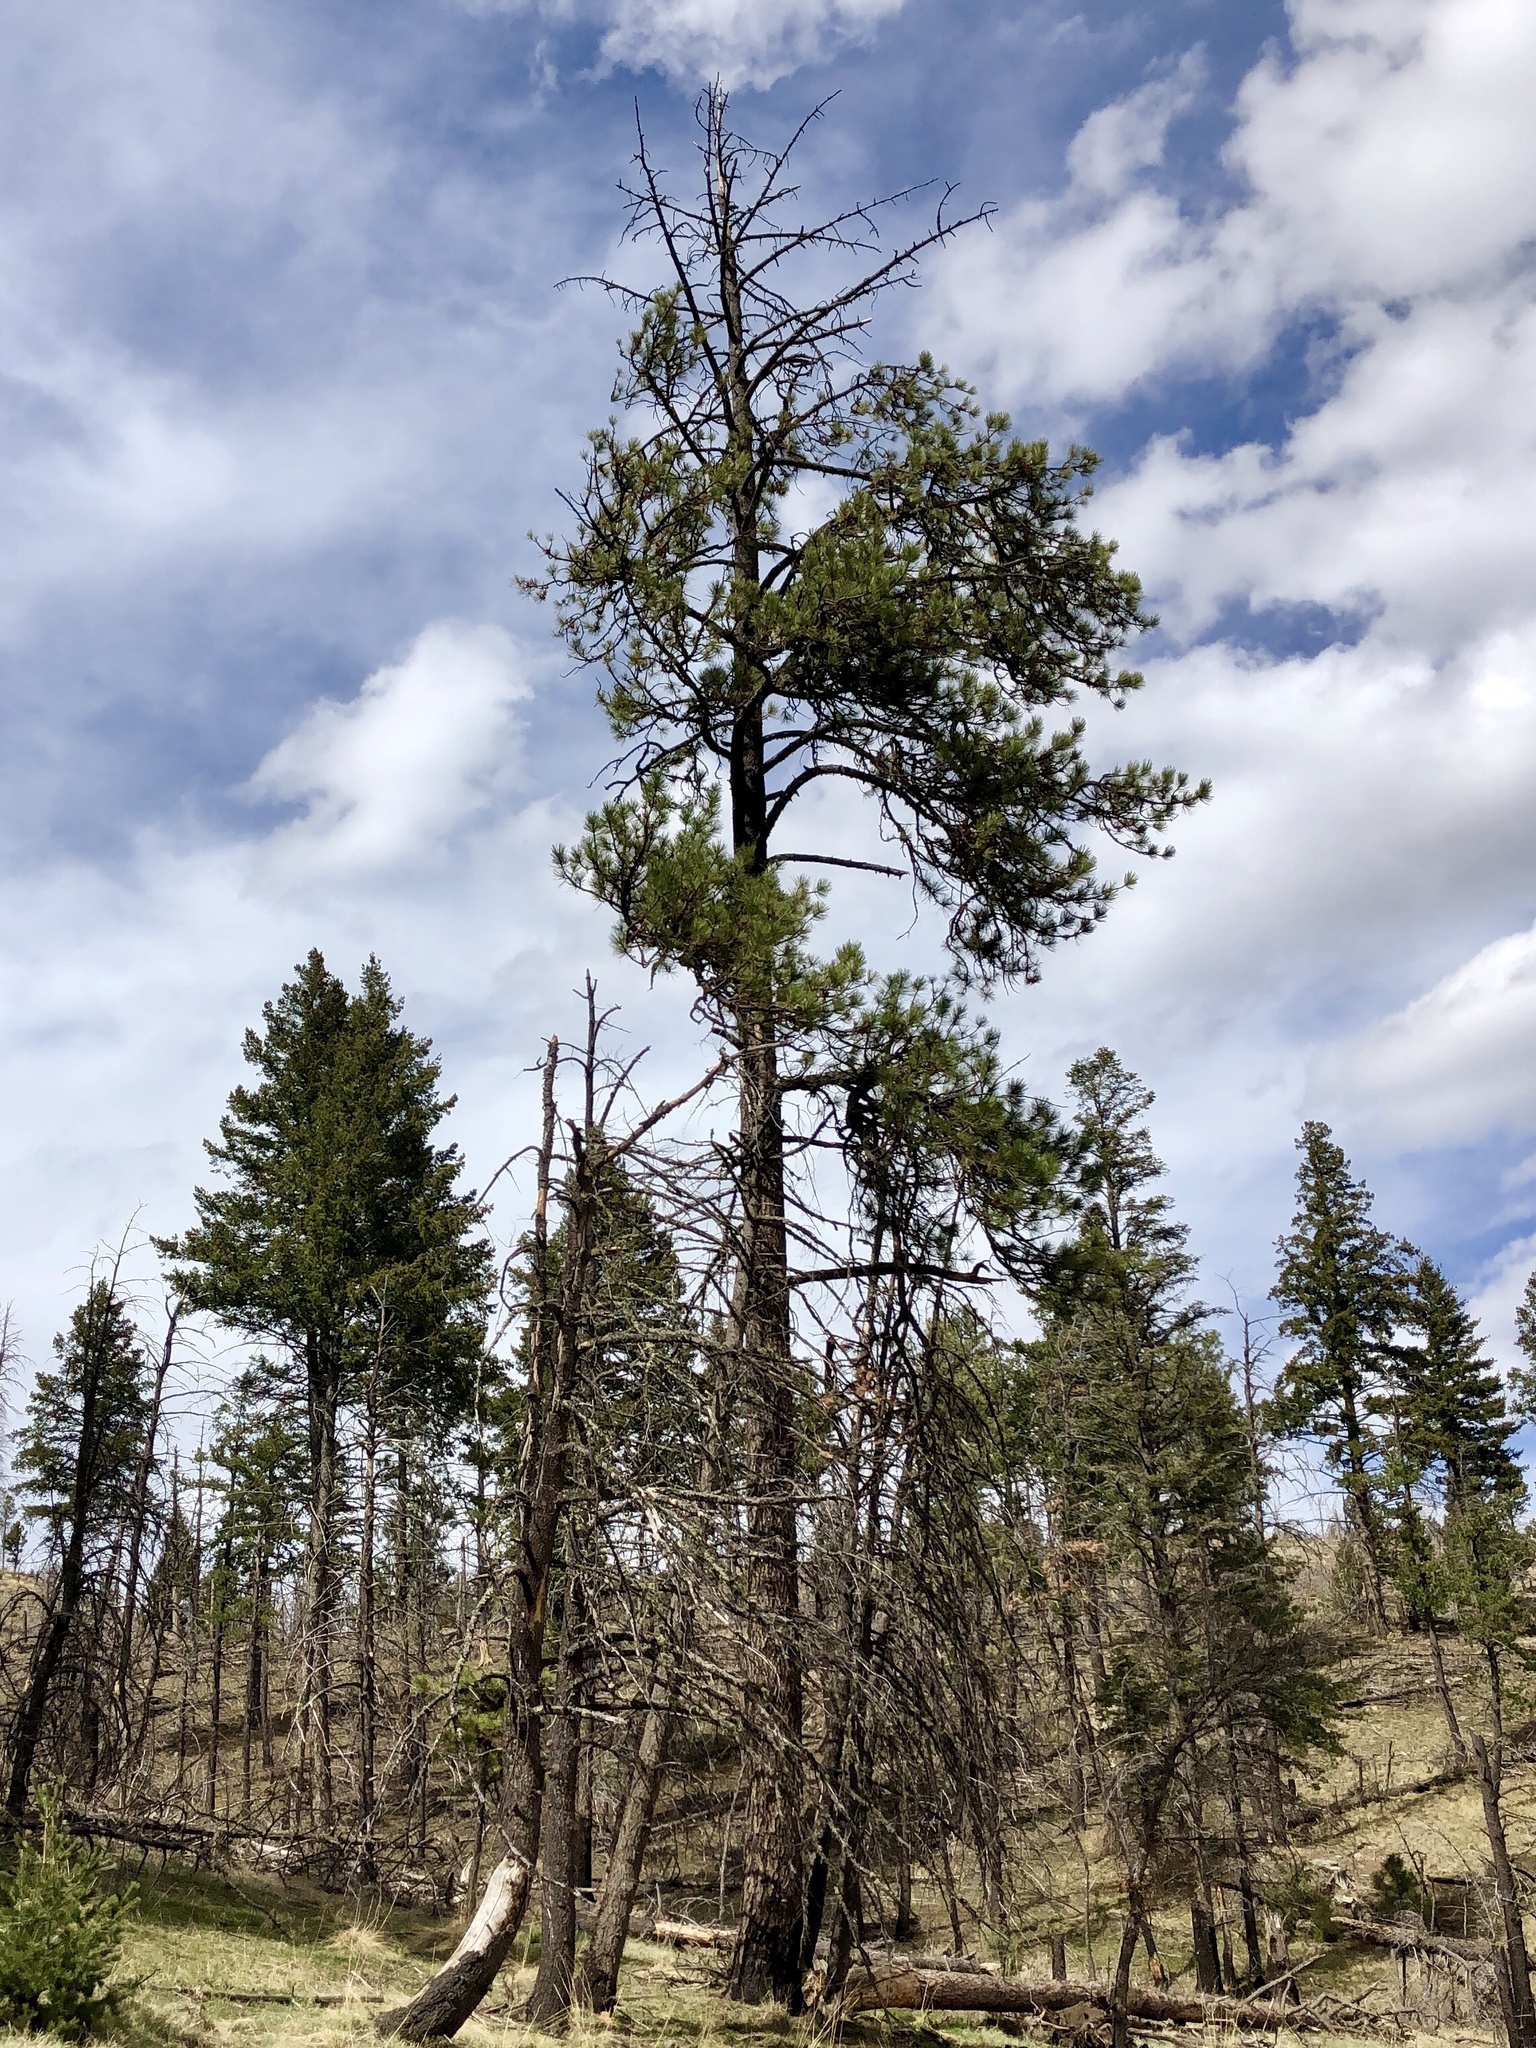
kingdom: Plantae
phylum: Tracheophyta
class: Pinopsida
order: Pinales
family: Pinaceae
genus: Pinus
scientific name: Pinus ponderosa
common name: Western yellow-pine
